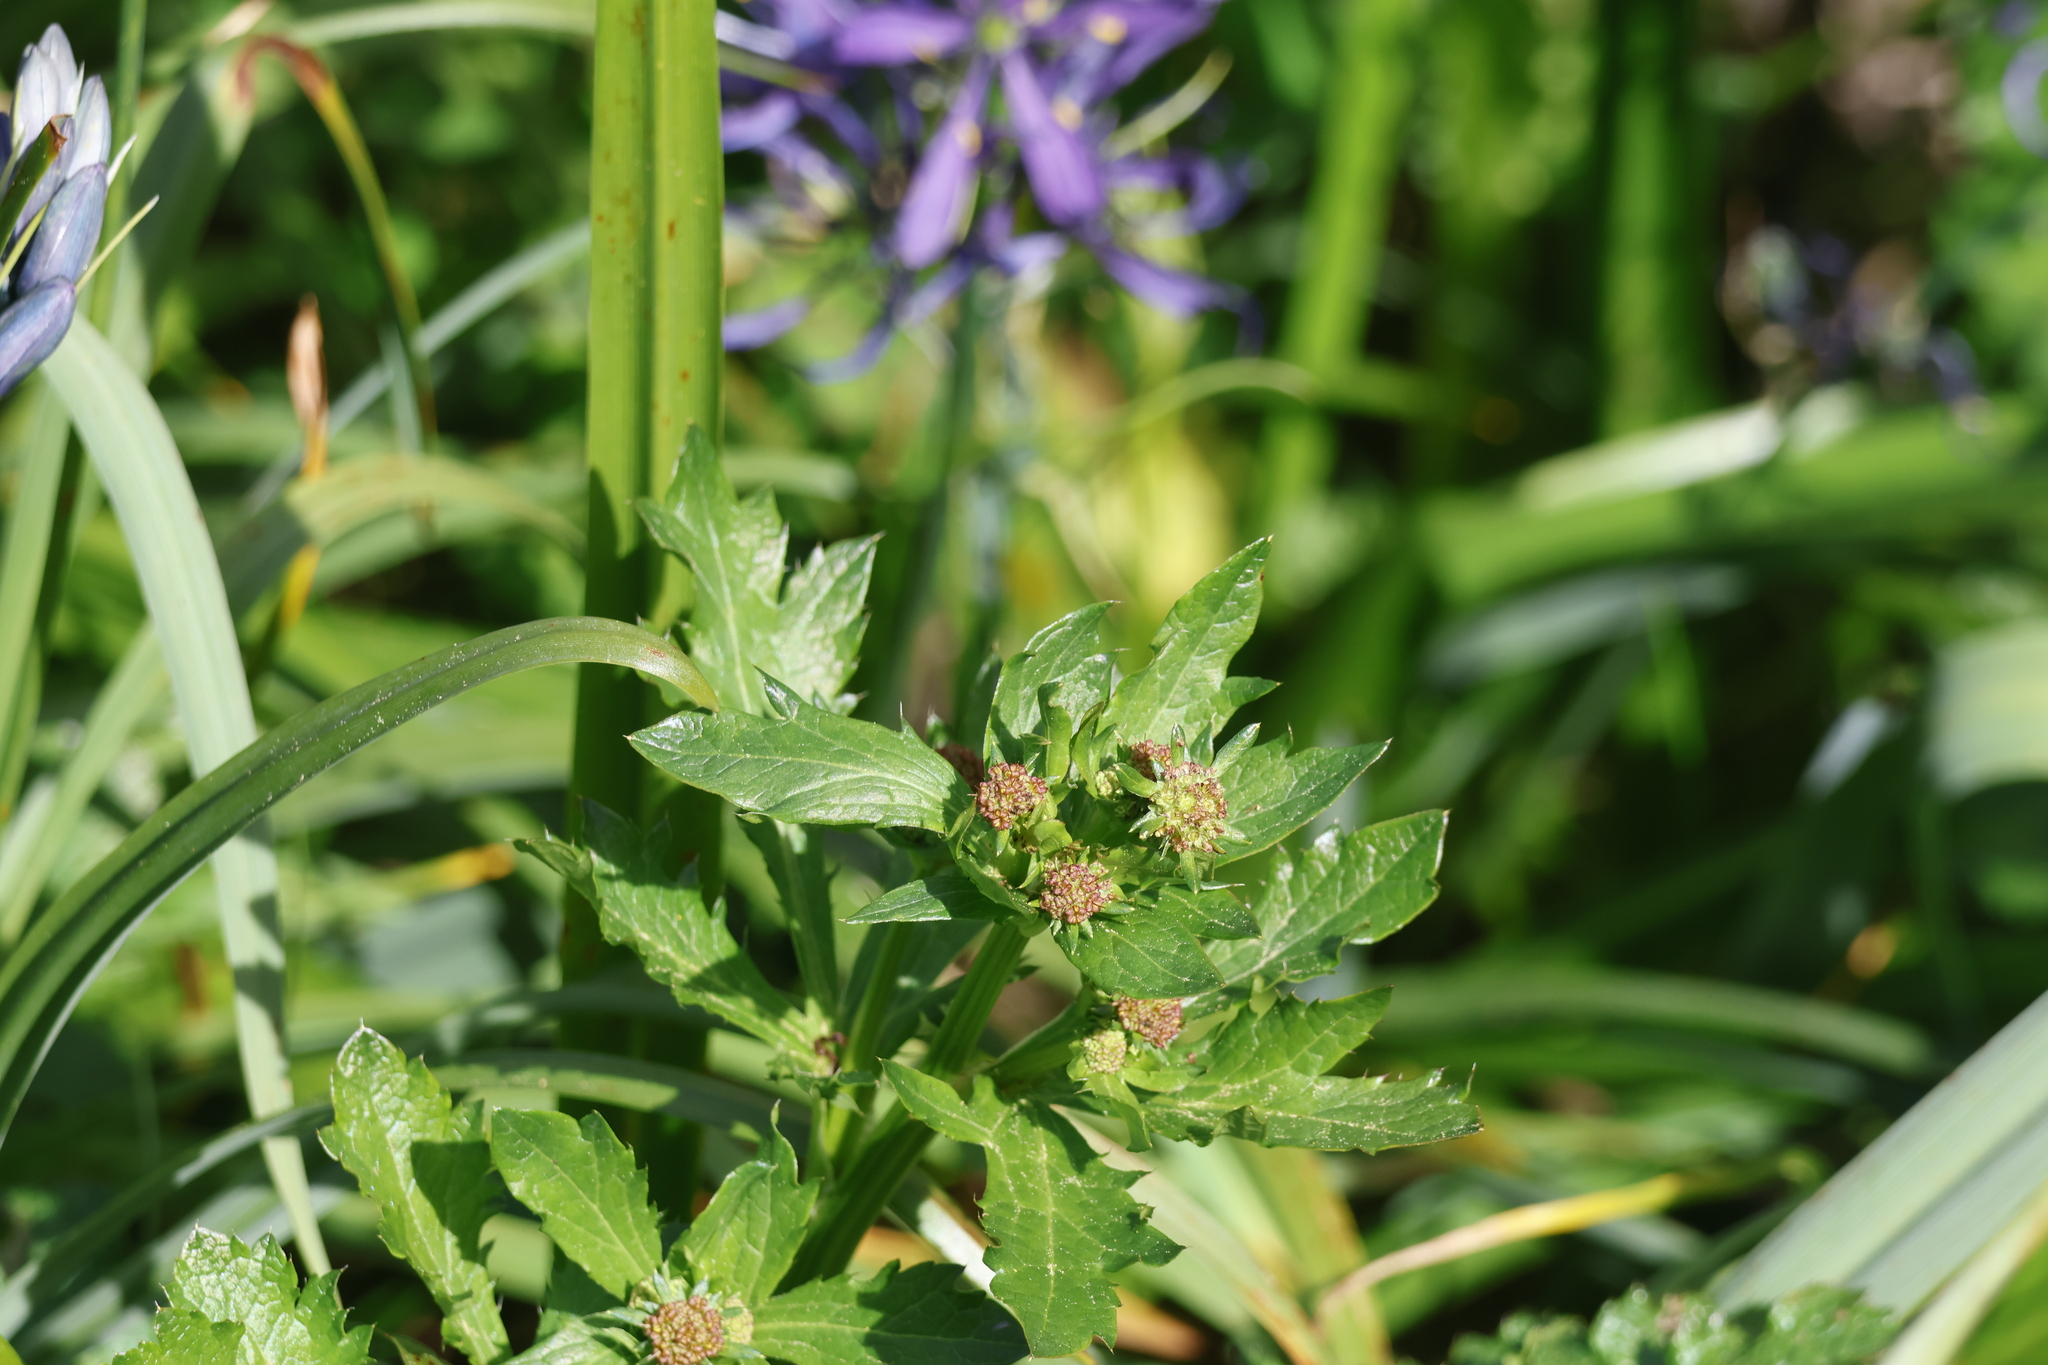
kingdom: Plantae
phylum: Tracheophyta
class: Magnoliopsida
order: Apiales
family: Apiaceae
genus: Sanicula
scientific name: Sanicula crassicaulis
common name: Western snakeroot
